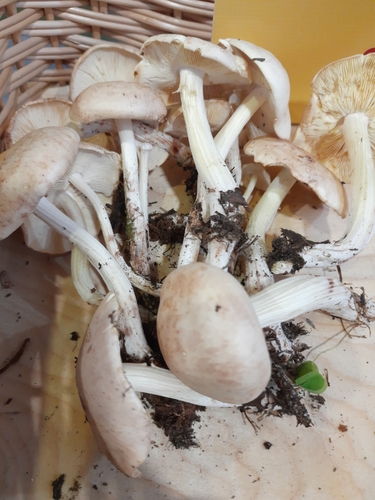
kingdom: Fungi
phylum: Basidiomycota
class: Agaricomycetes
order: Agaricales
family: Omphalotaceae
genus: Rhodocollybia
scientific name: Rhodocollybia maculata
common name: Spotted tough-shank
